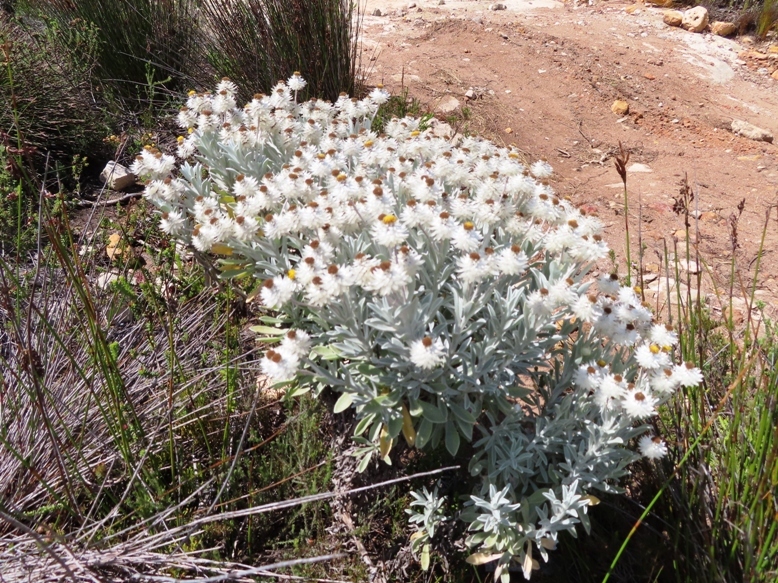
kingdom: Plantae
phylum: Tracheophyta
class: Magnoliopsida
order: Asterales
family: Asteraceae
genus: Syncarpha
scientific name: Syncarpha argyropsis
